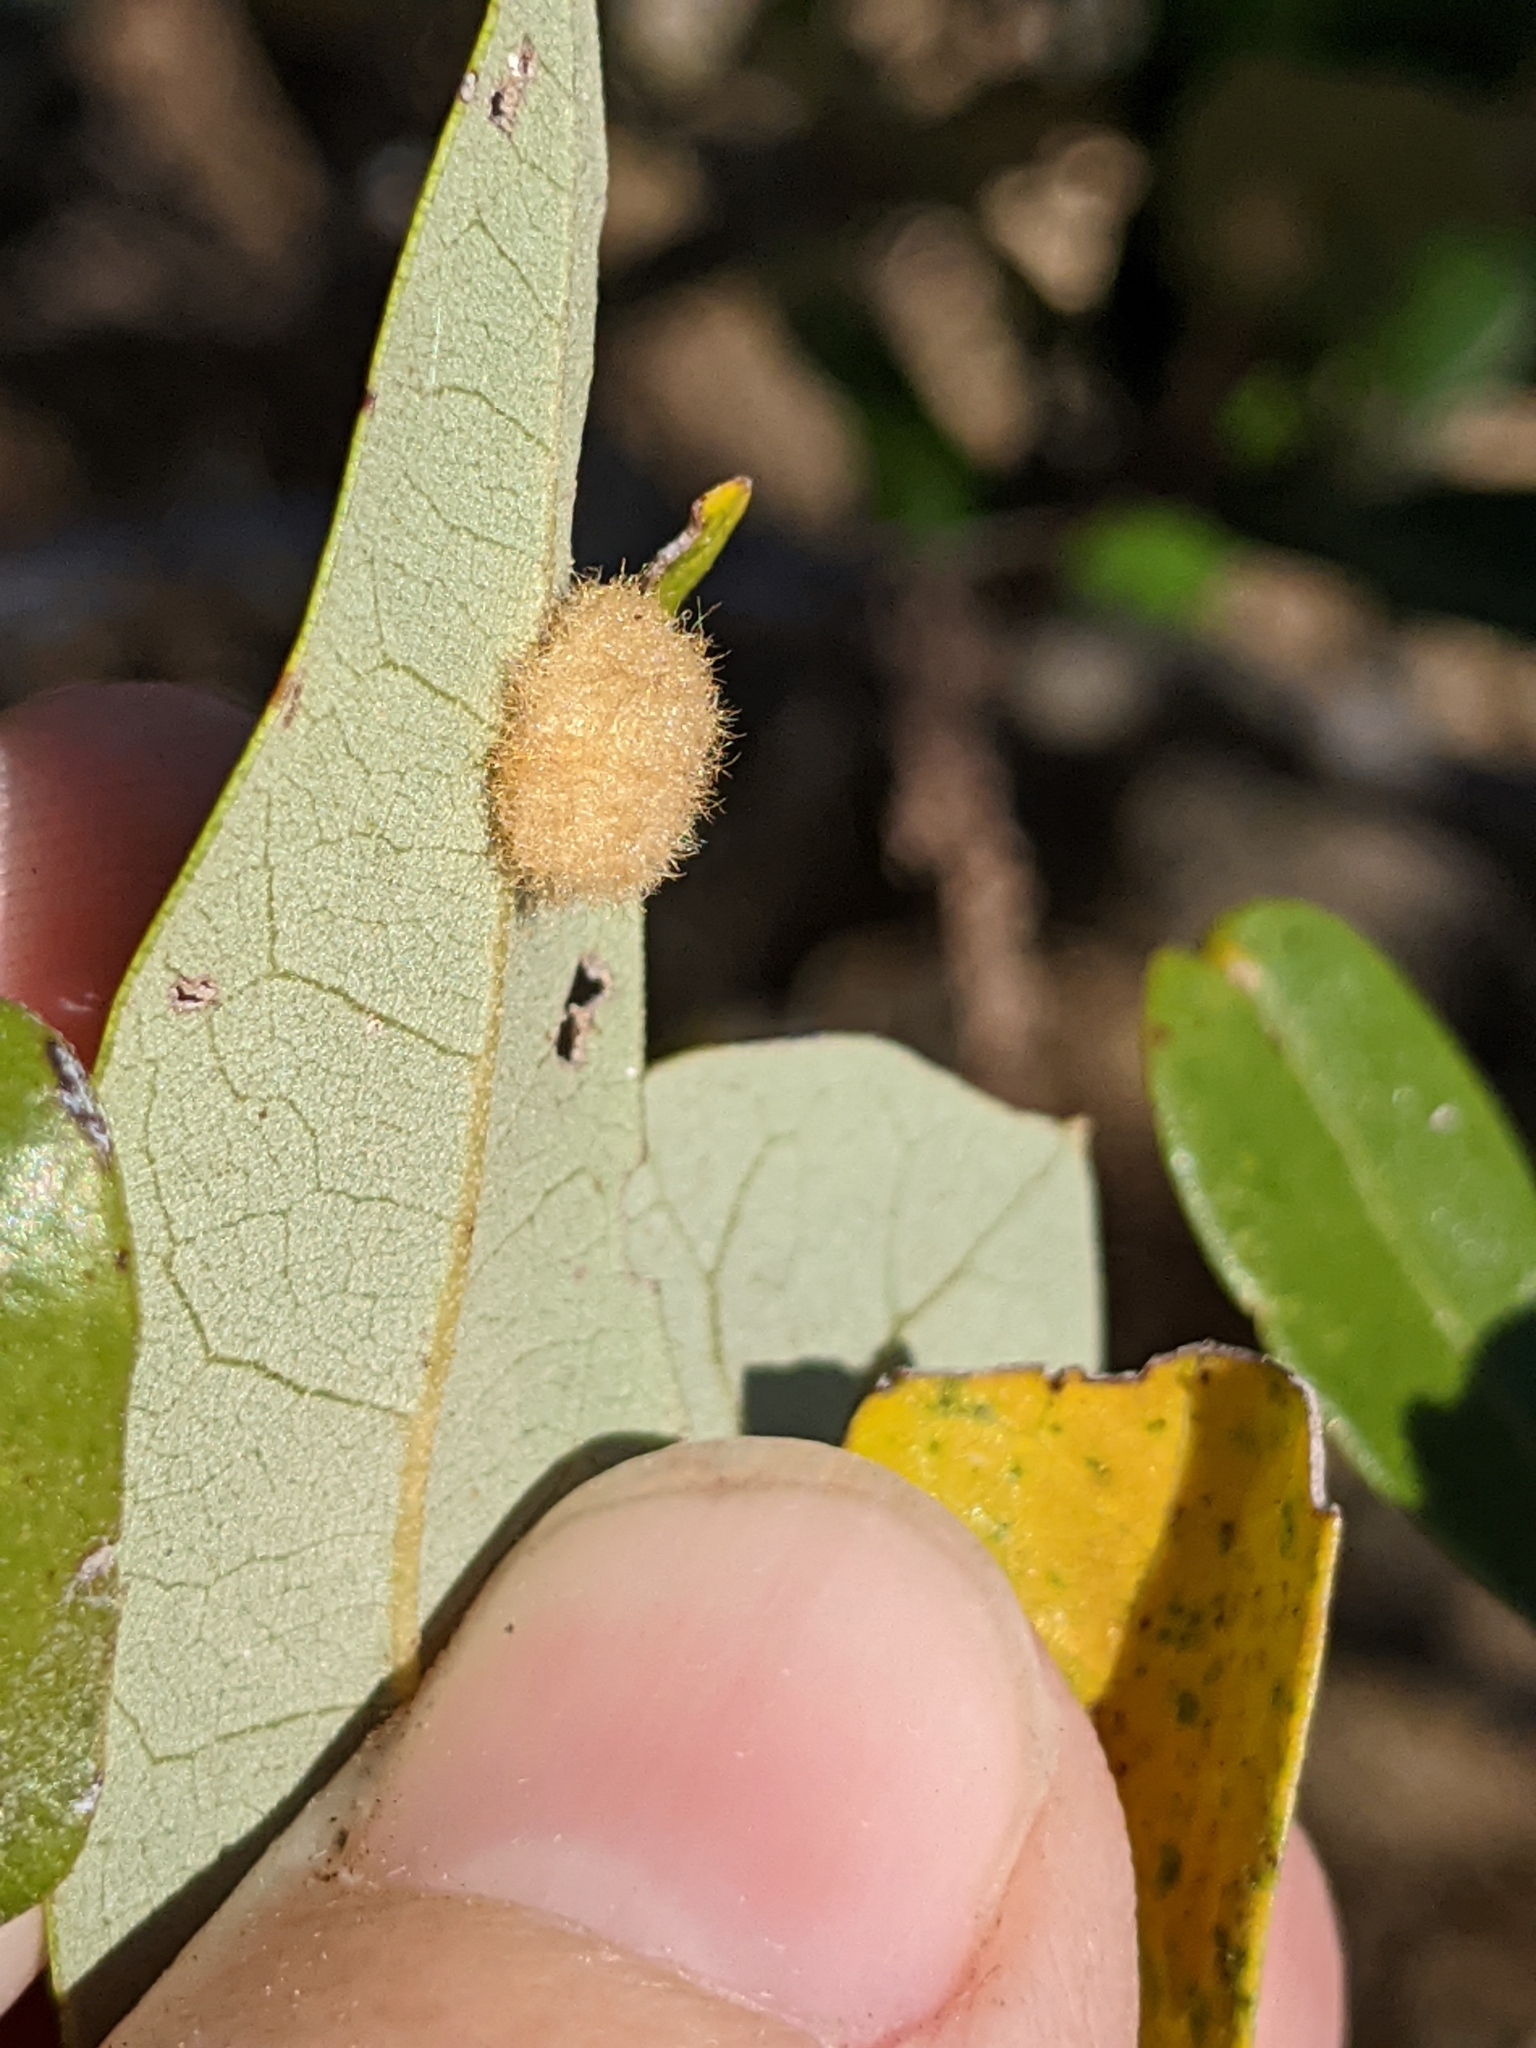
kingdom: Animalia
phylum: Arthropoda
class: Insecta
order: Hymenoptera
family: Cynipidae
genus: Andricus
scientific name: Andricus Druon quercuslanigerum
